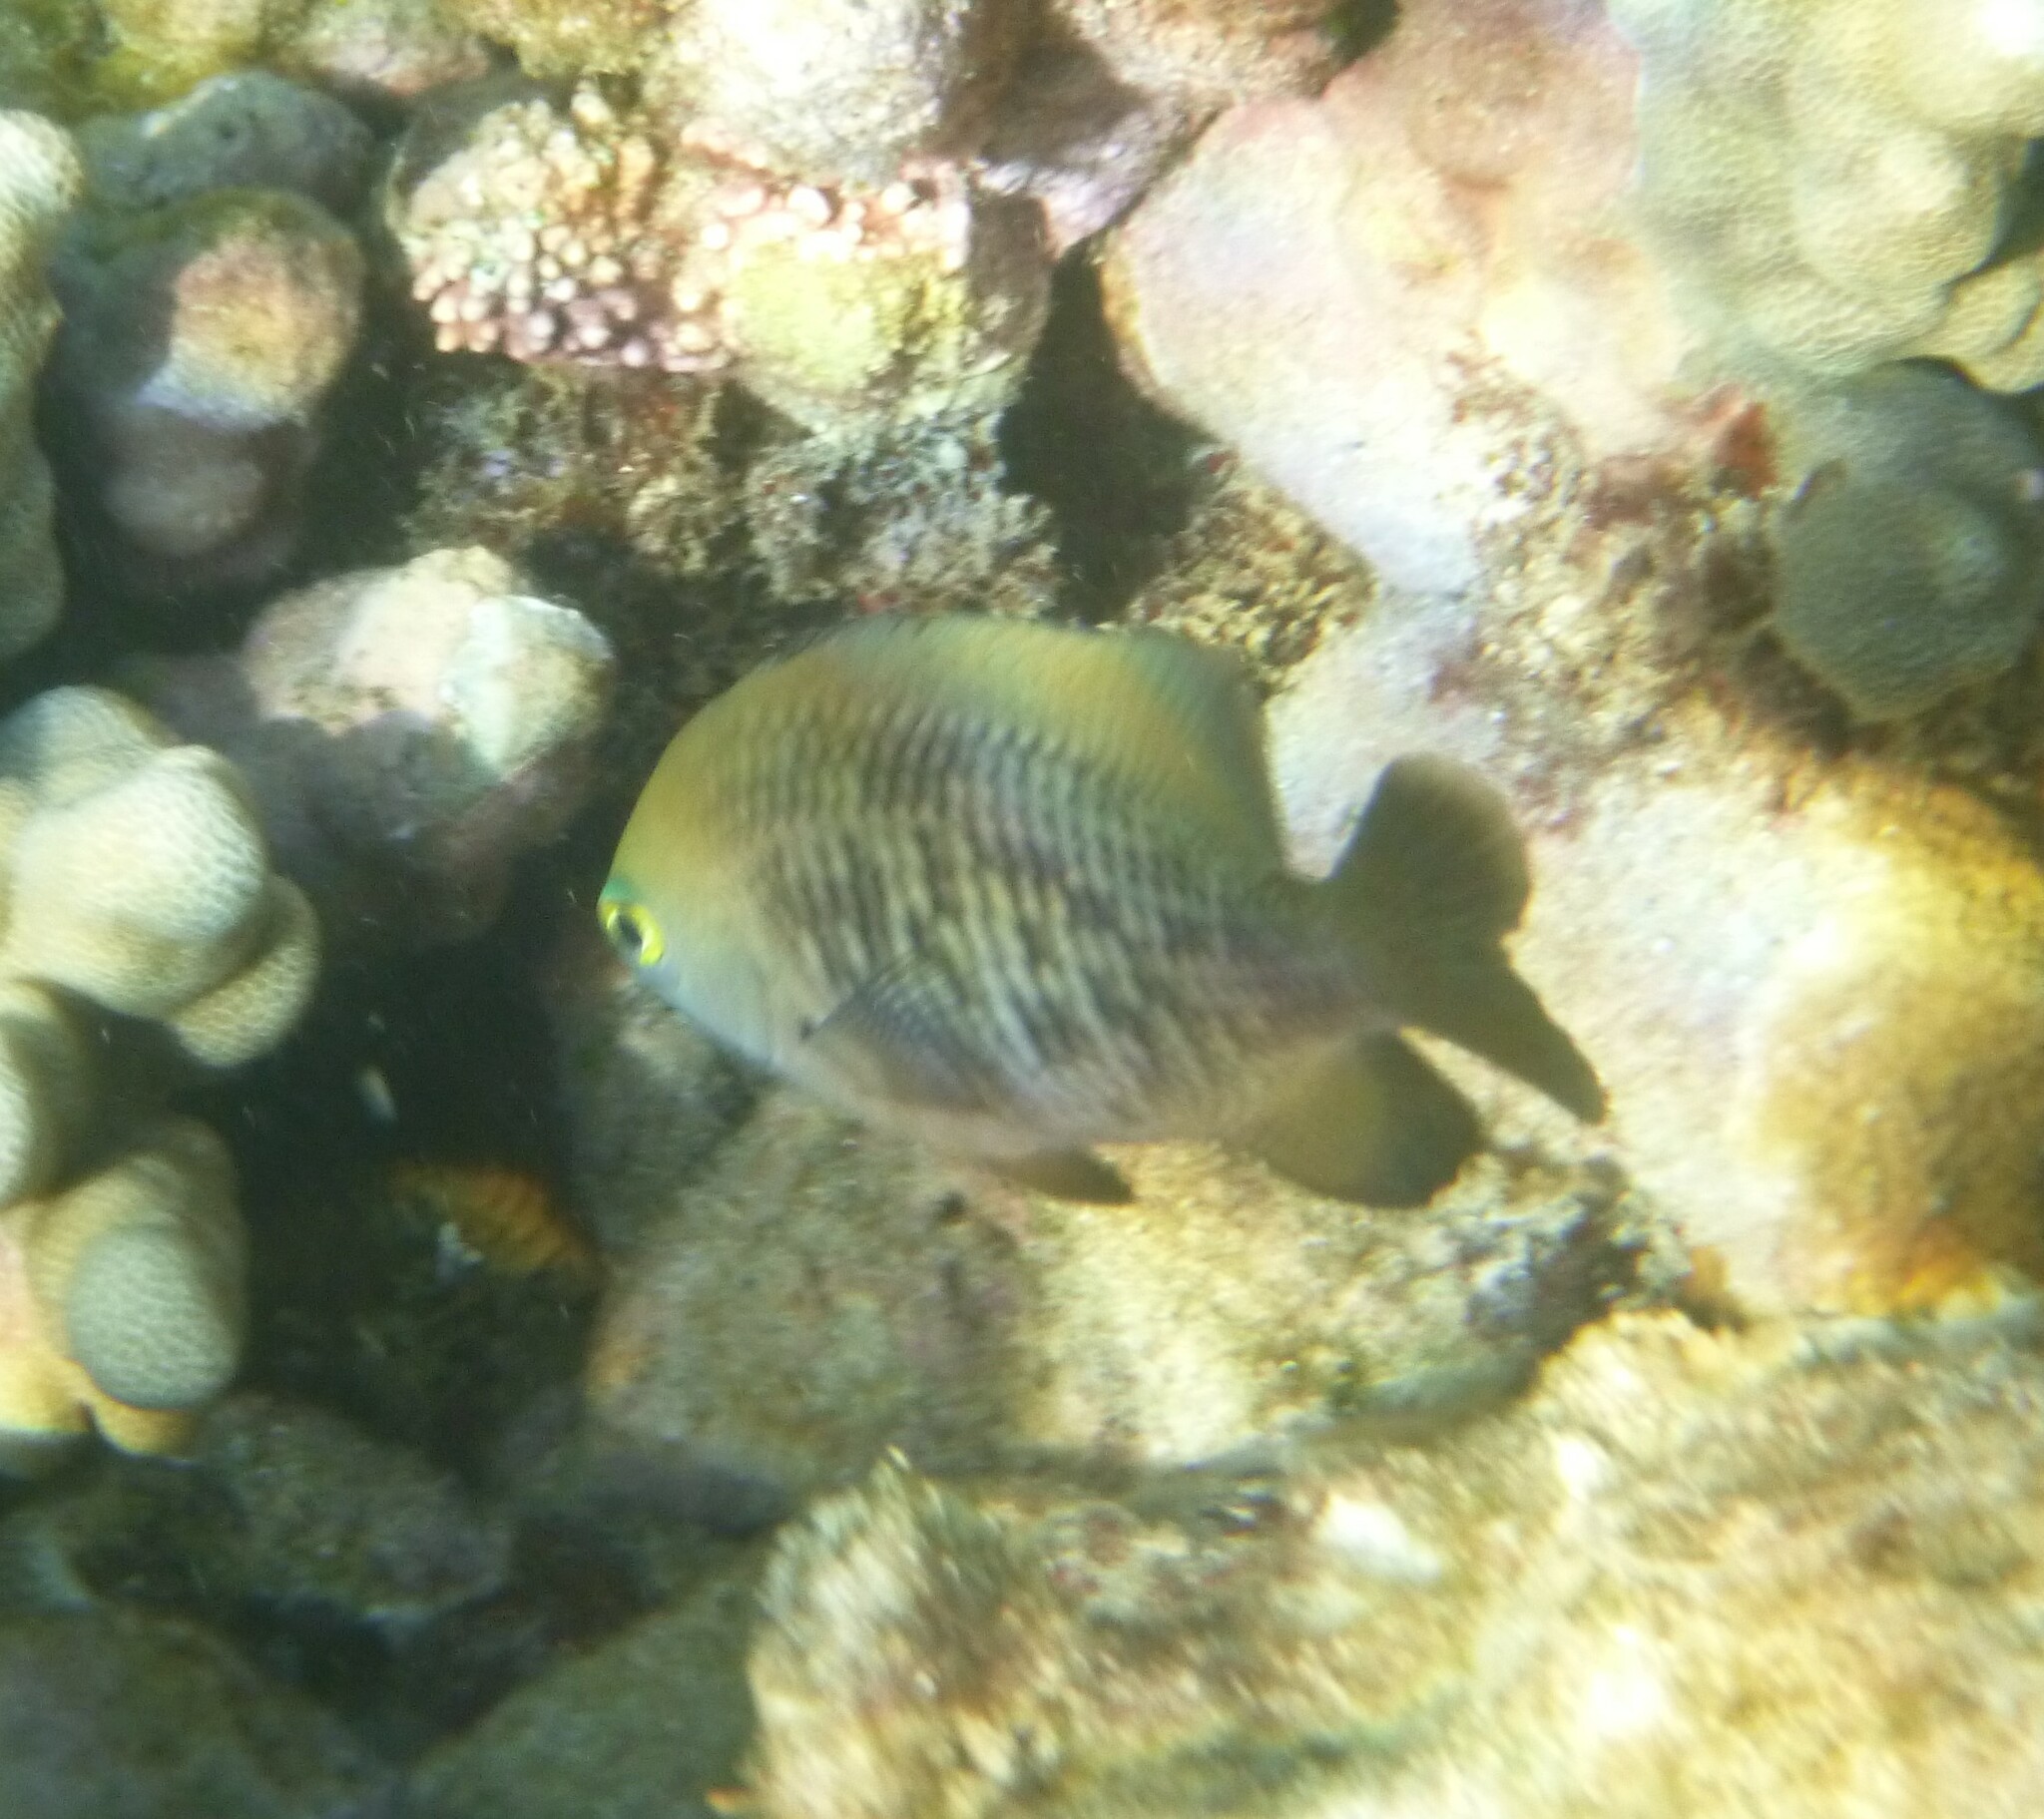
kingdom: Animalia
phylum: Chordata
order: Perciformes
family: Pomacentridae
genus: Stegastes
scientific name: Stegastes fasciolatus
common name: Pacific gregory
